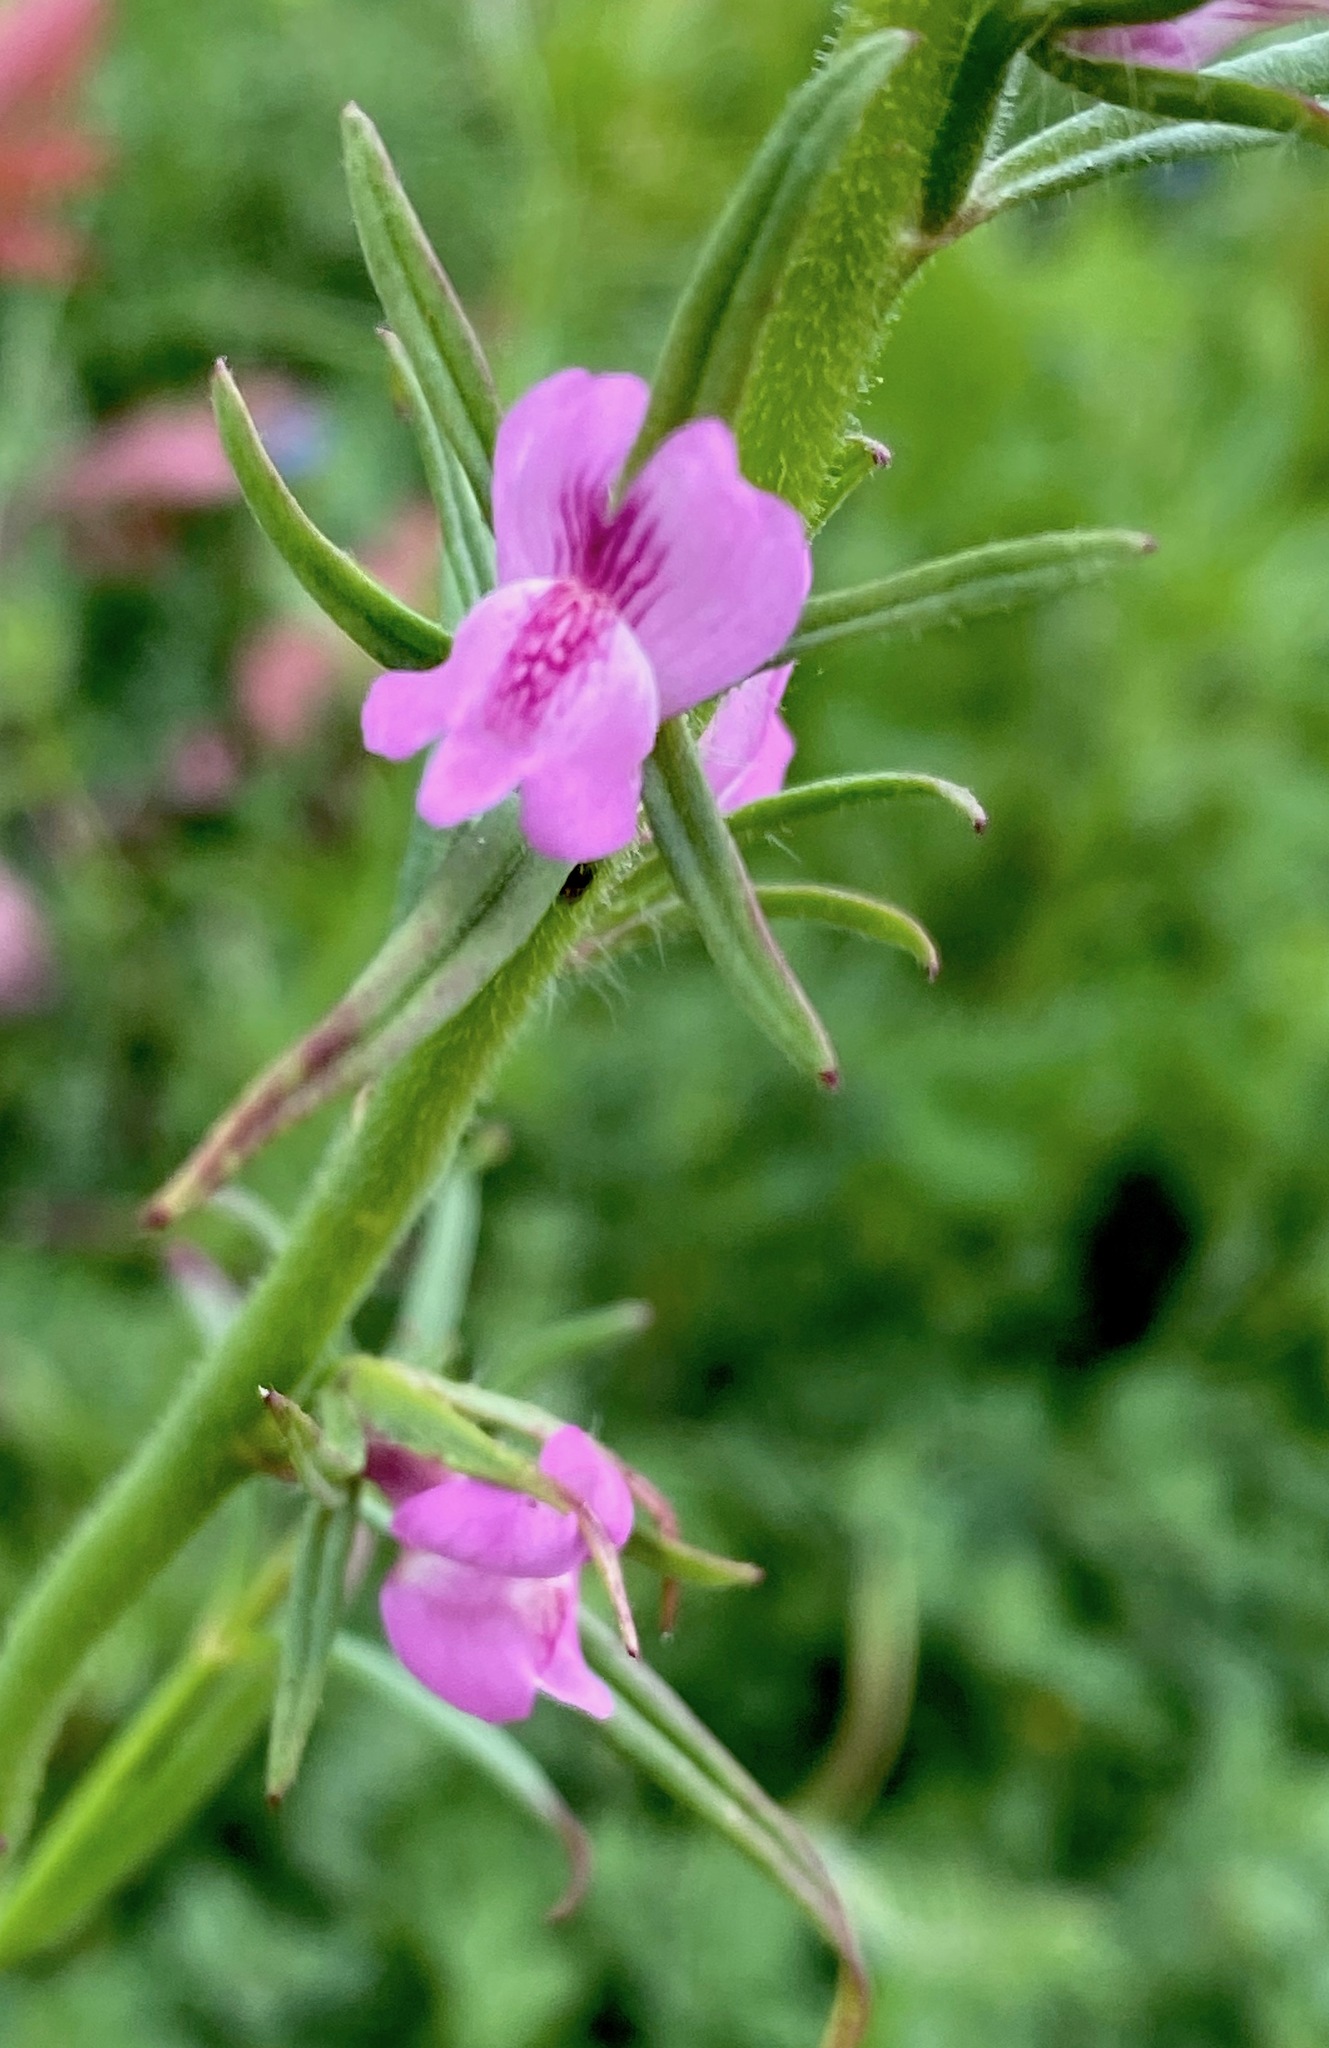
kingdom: Plantae
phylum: Tracheophyta
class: Magnoliopsida
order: Lamiales
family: Plantaginaceae
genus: Misopates
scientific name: Misopates orontium
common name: Weasel's-snout
